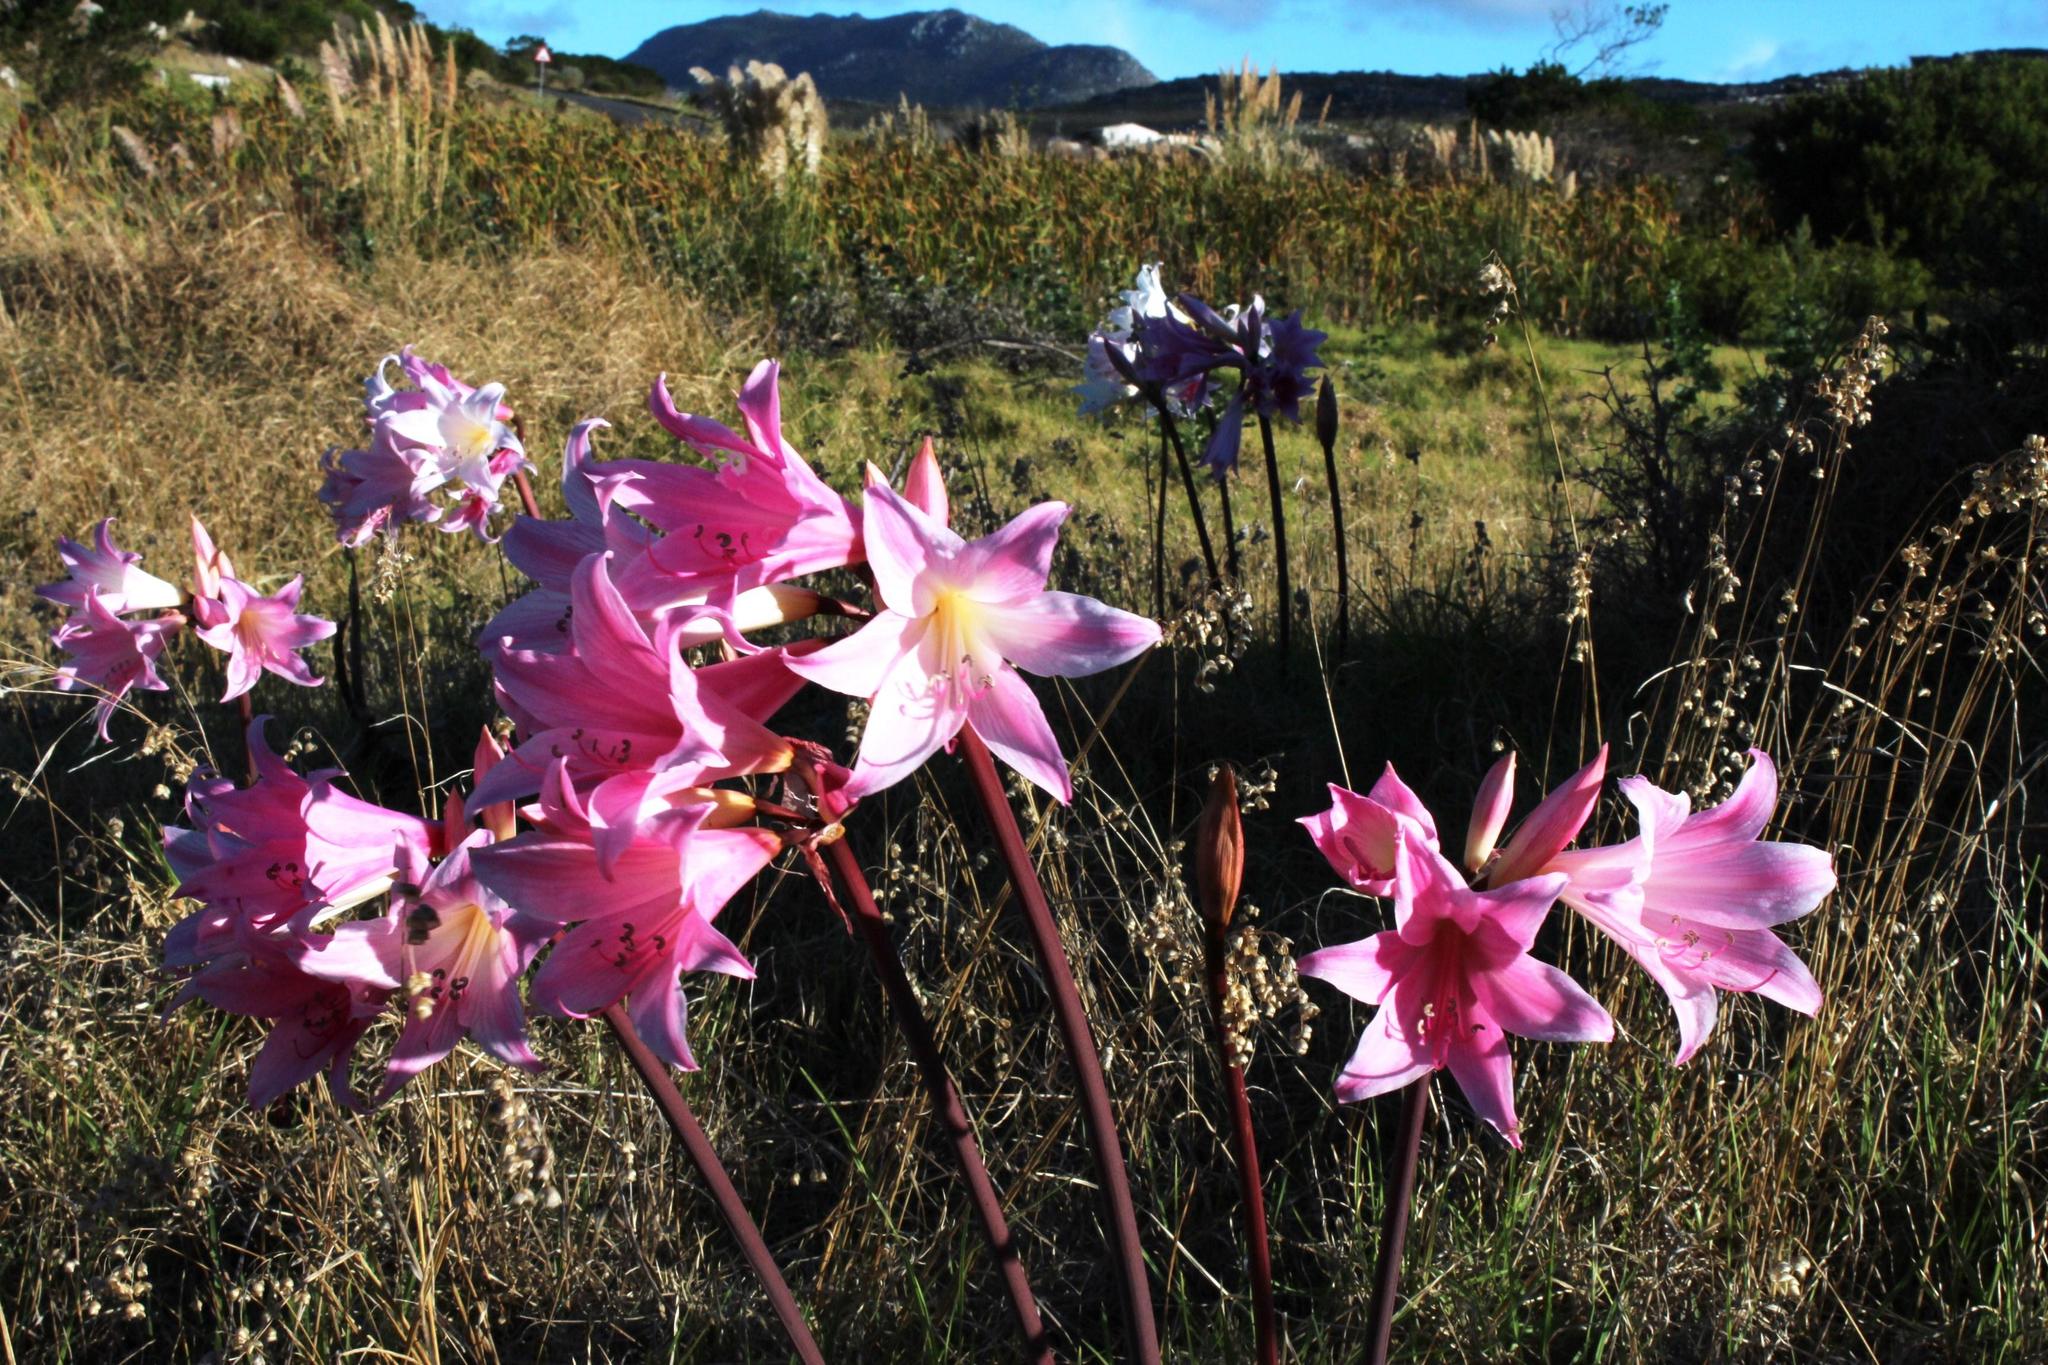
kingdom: Plantae
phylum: Tracheophyta
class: Liliopsida
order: Asparagales
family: Amaryllidaceae
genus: Amaryllis
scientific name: Amaryllis belladonna
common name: Jersey lily
